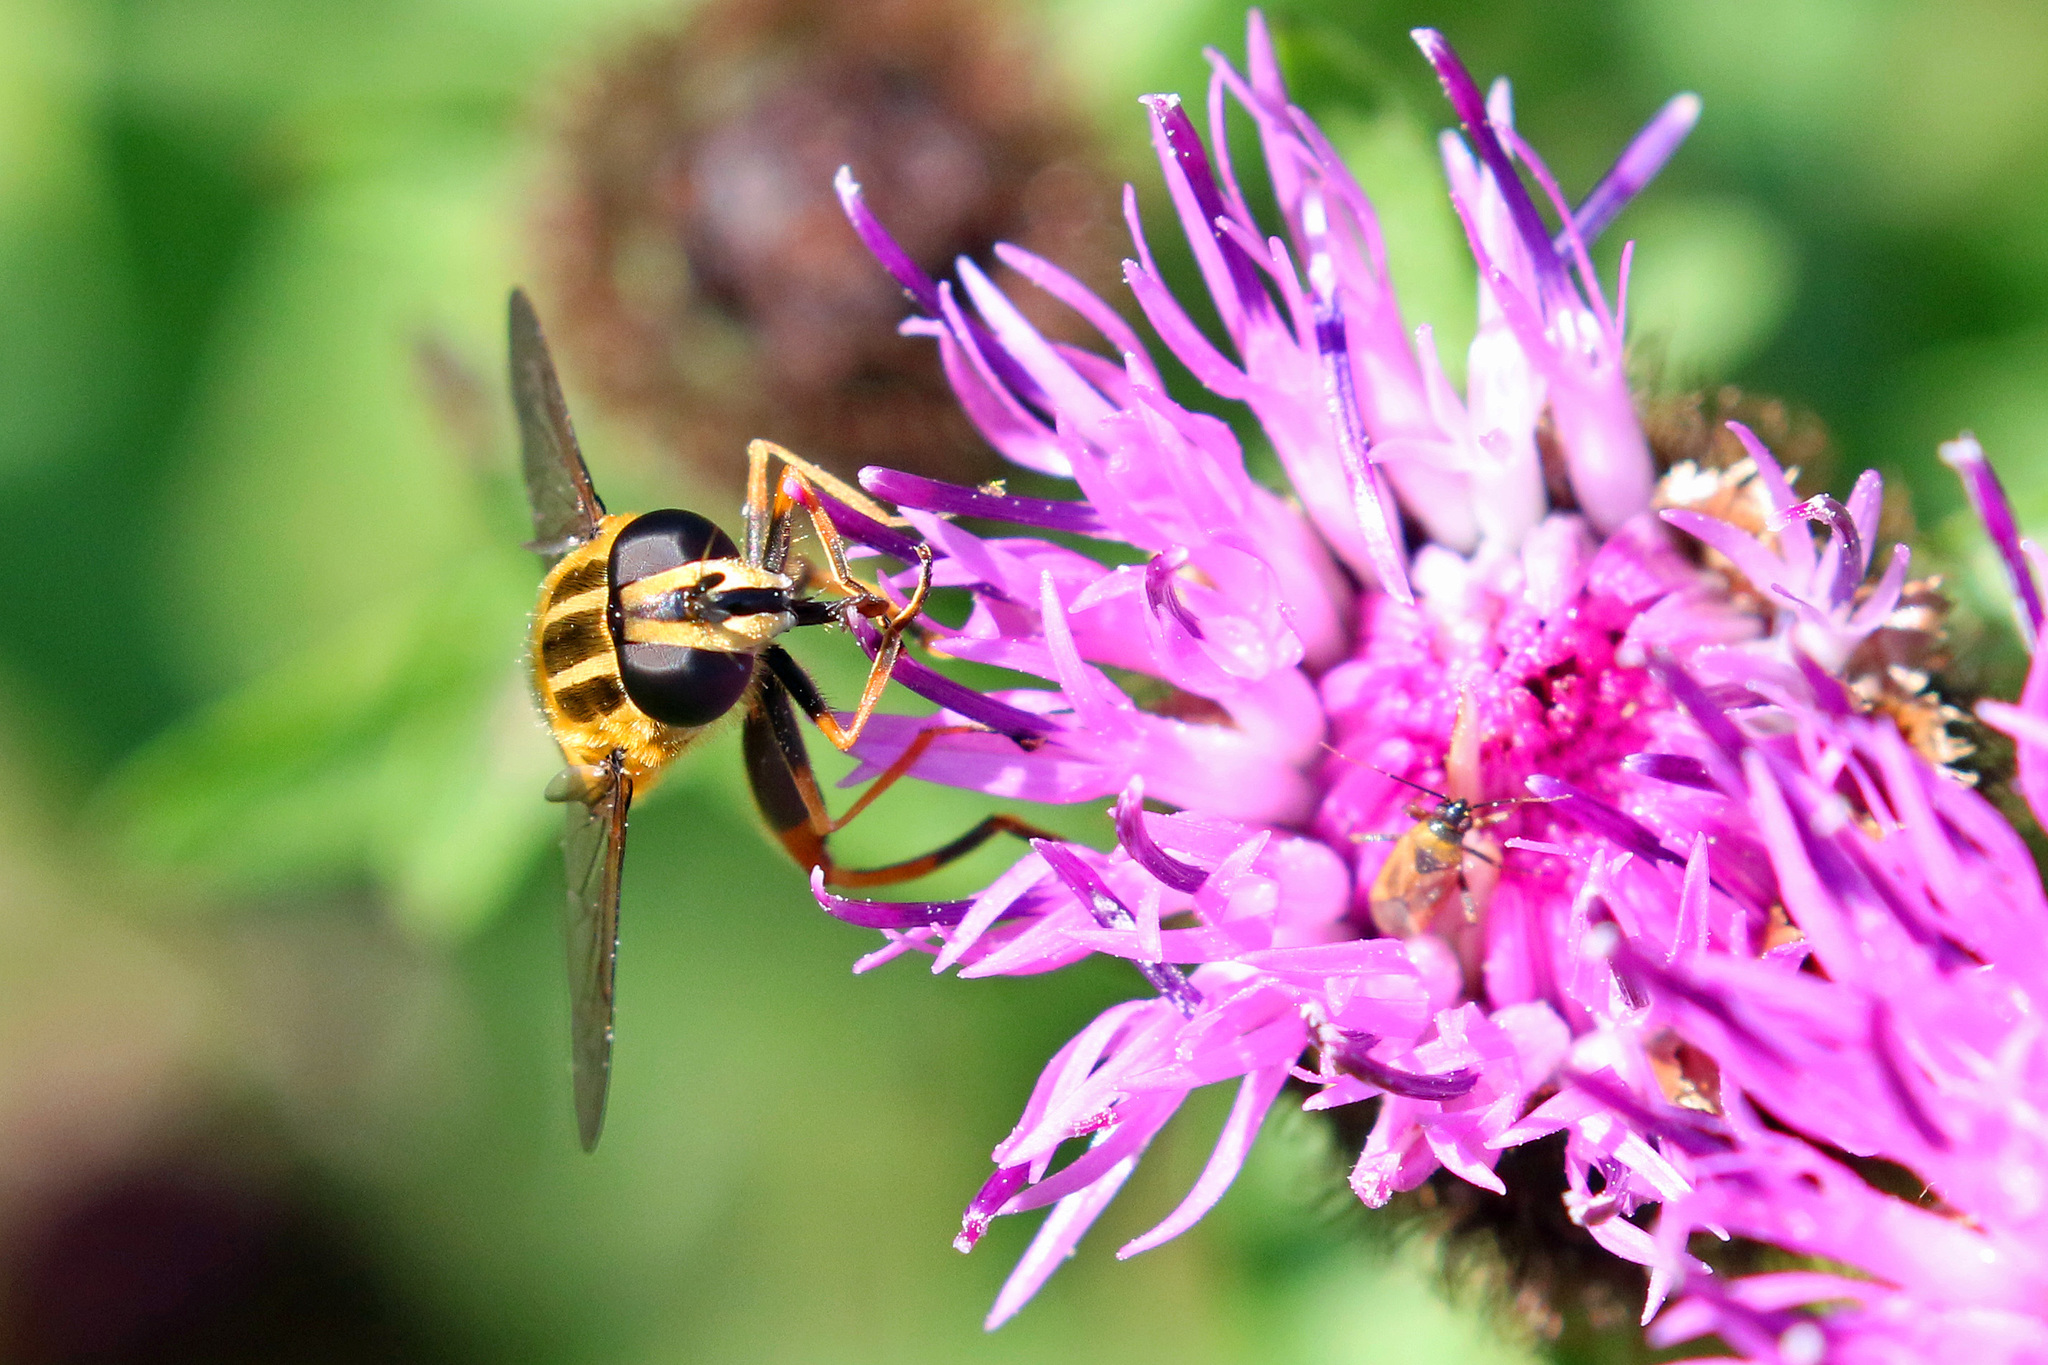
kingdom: Animalia
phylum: Arthropoda
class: Insecta
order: Diptera
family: Syrphidae
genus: Helophilus
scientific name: Helophilus pendulus
